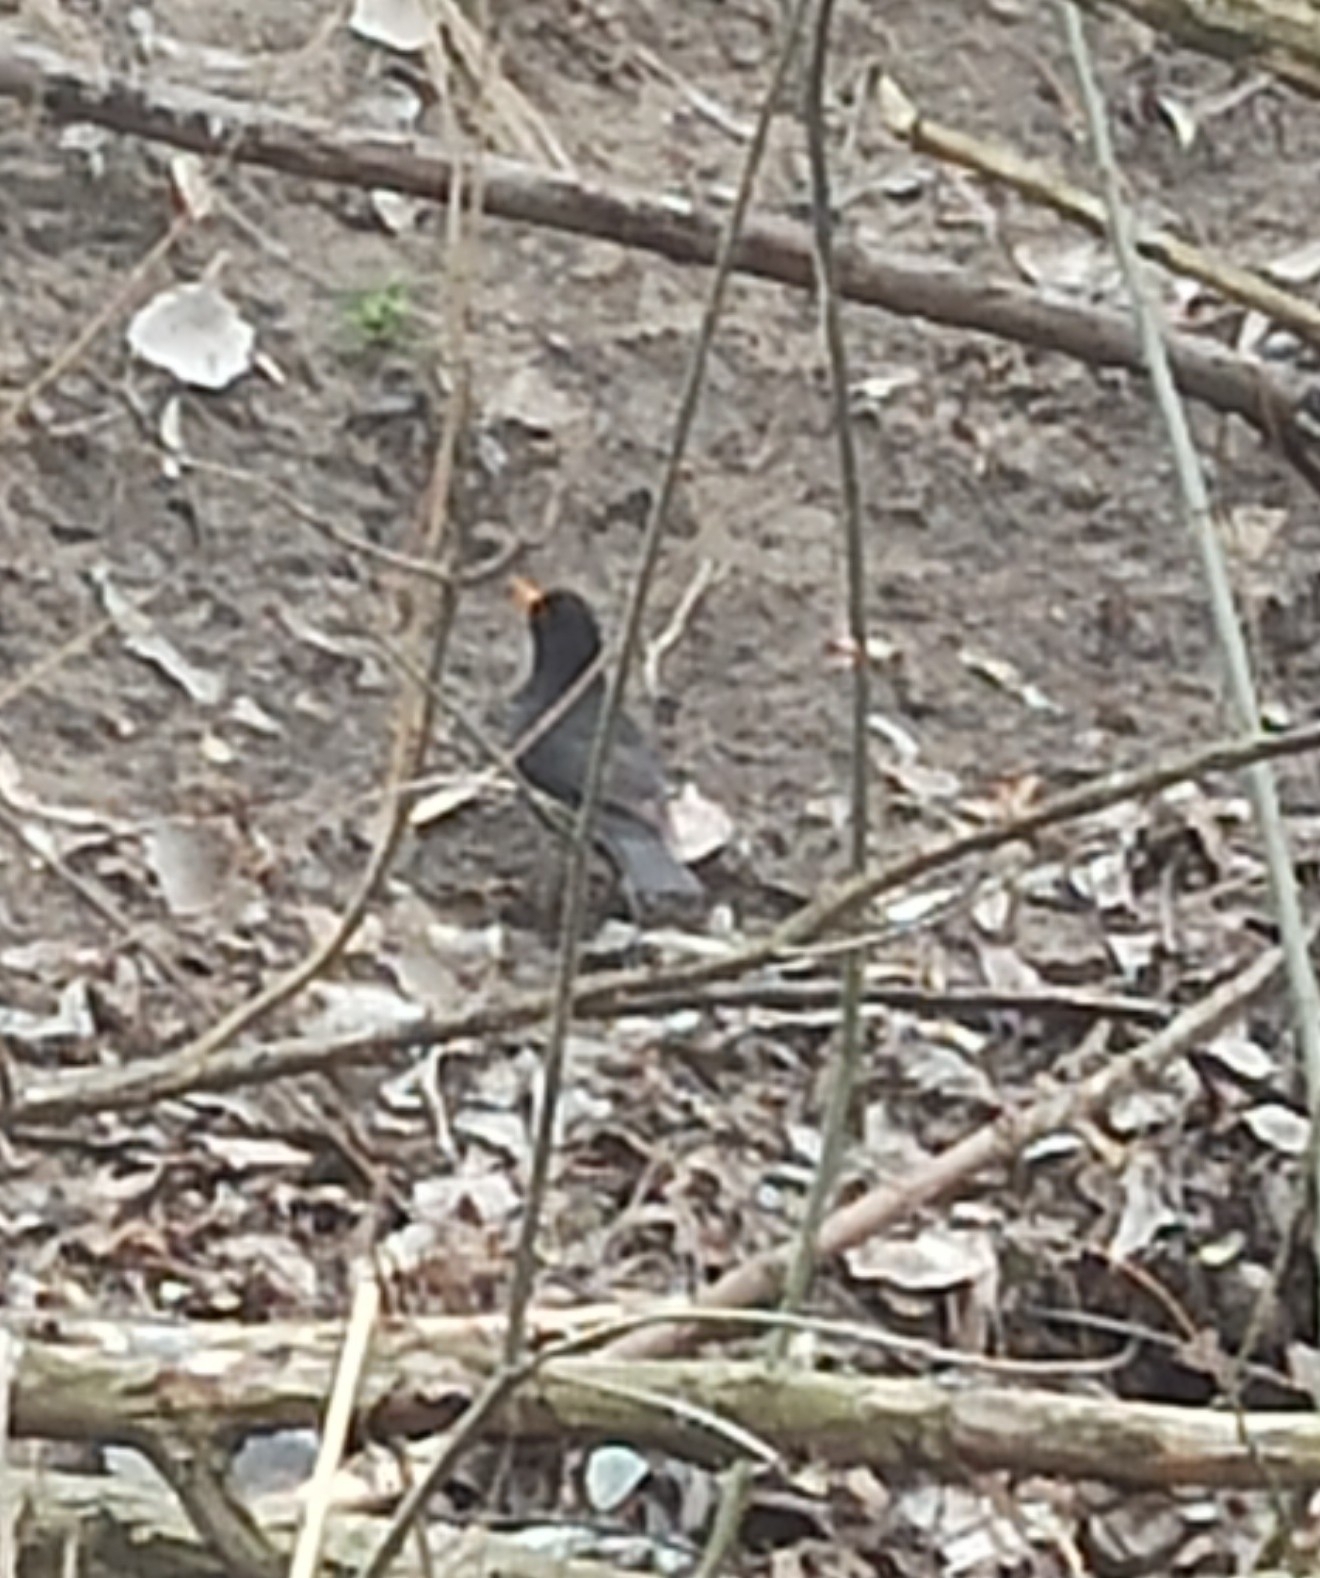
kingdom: Animalia
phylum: Chordata
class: Aves
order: Passeriformes
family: Turdidae
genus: Turdus
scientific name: Turdus merula
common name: Common blackbird
